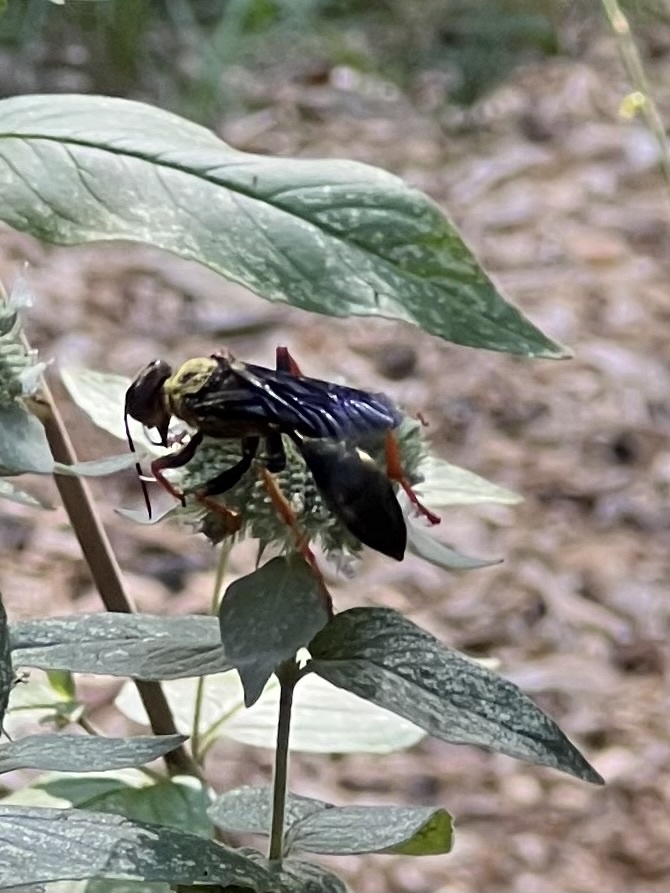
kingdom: Animalia
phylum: Arthropoda
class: Insecta
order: Hymenoptera
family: Sphecidae
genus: Sphex
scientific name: Sphex nudus
